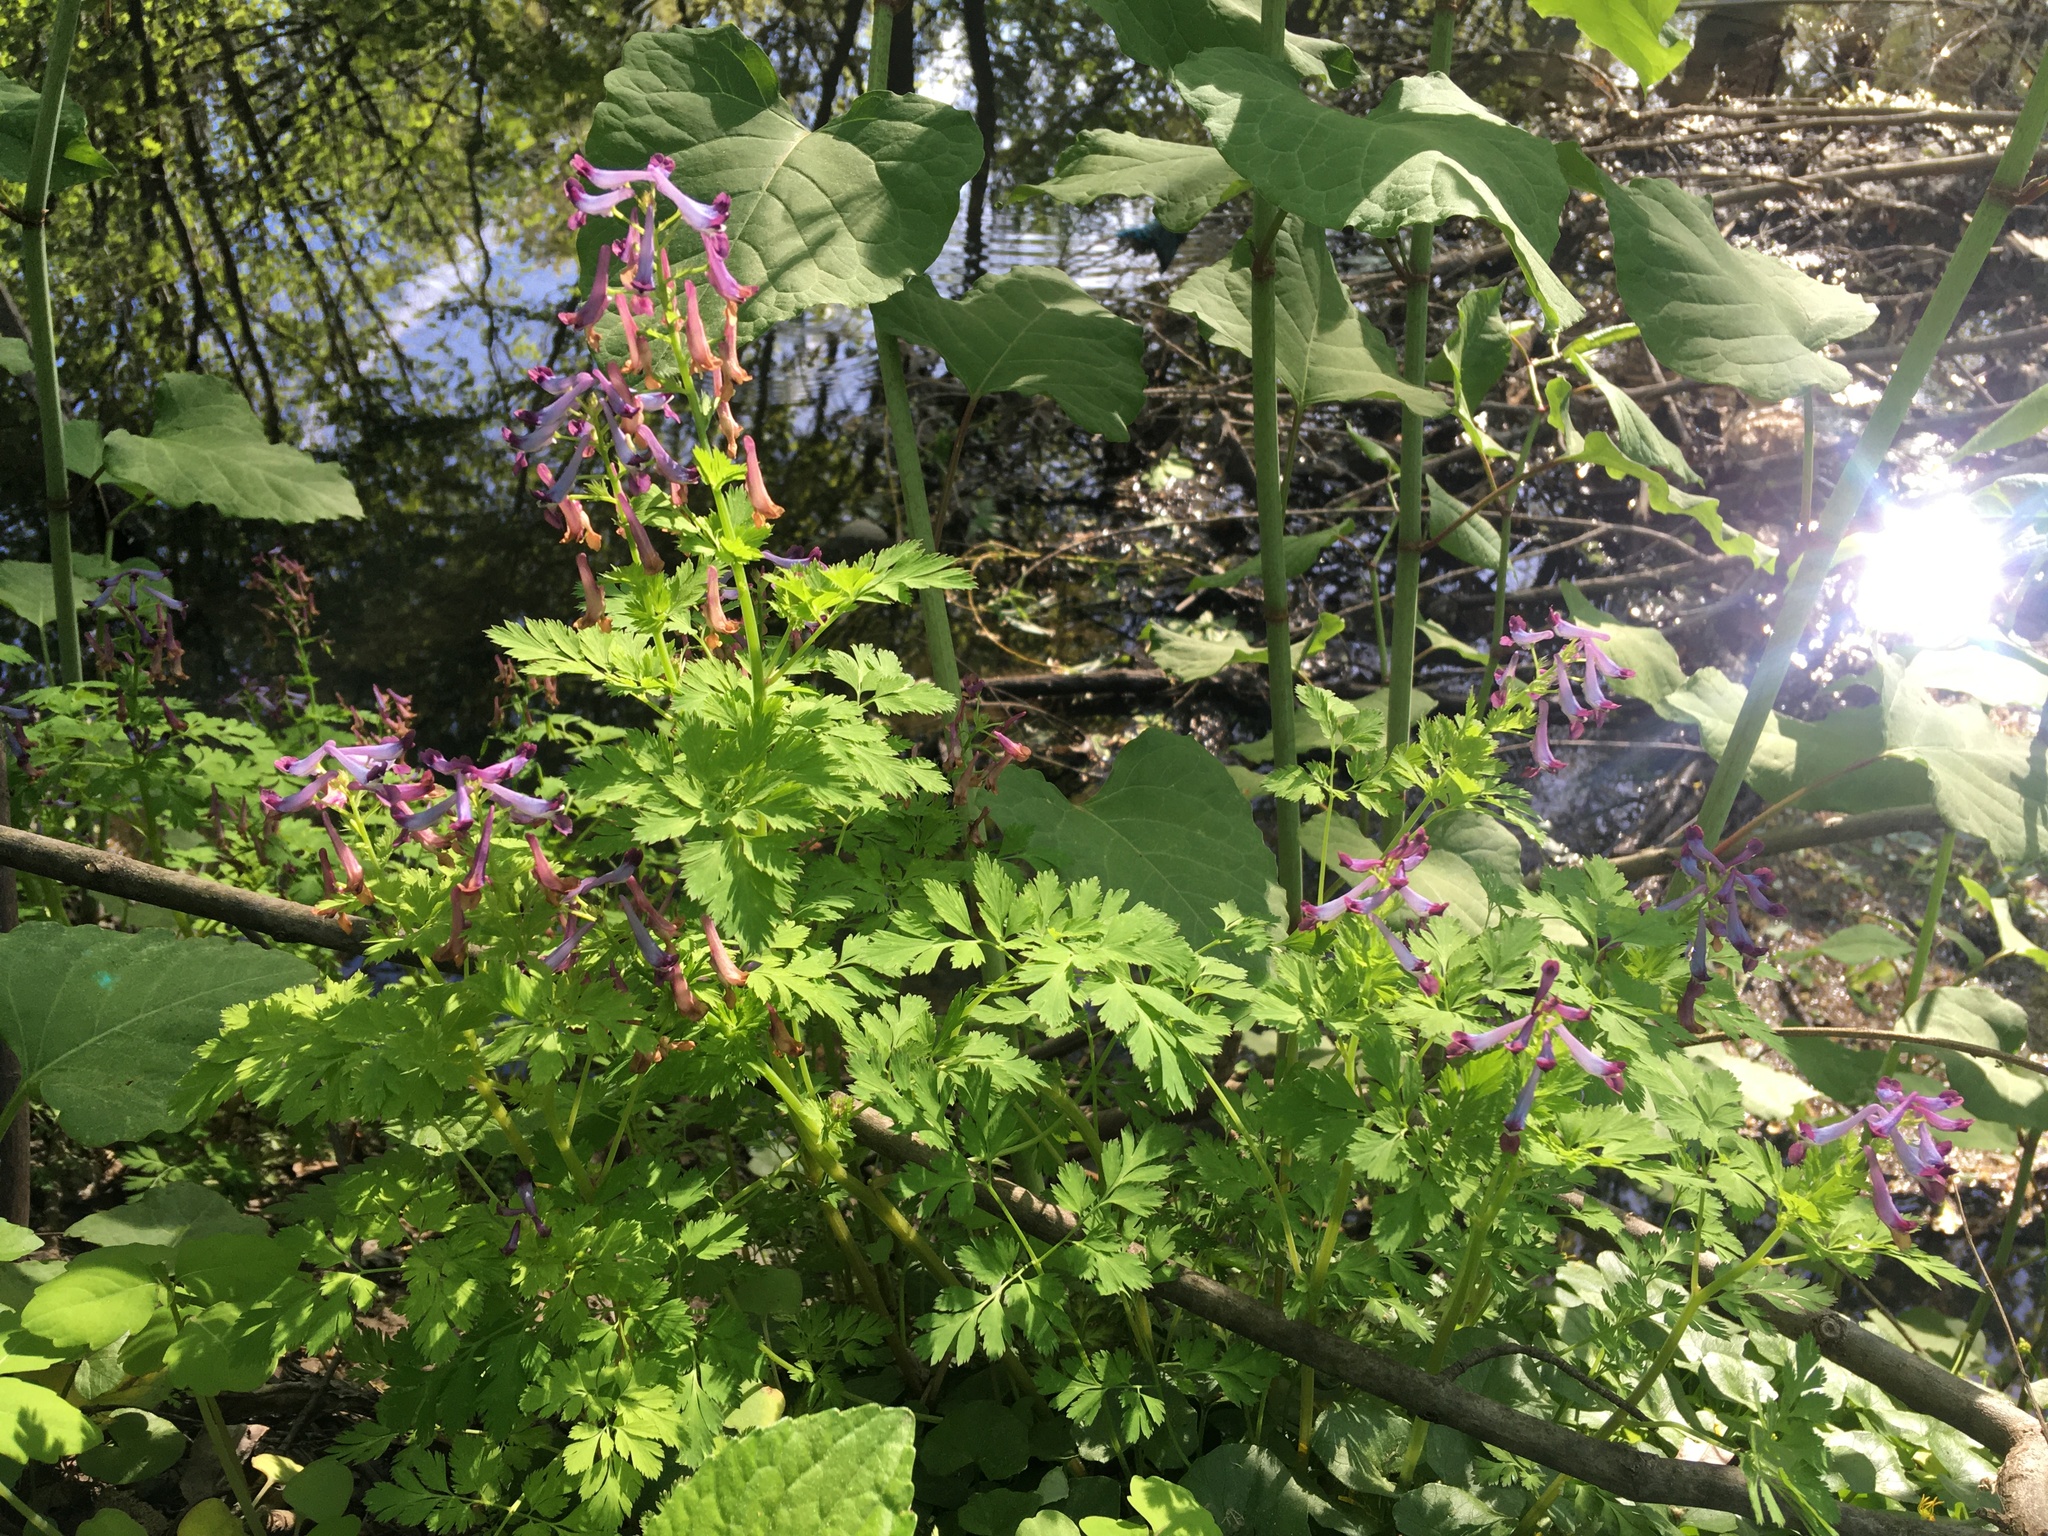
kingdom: Plantae
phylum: Tracheophyta
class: Magnoliopsida
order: Ranunculales
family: Papaveraceae
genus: Corydalis
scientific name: Corydalis incisa
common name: Incised fumewort
